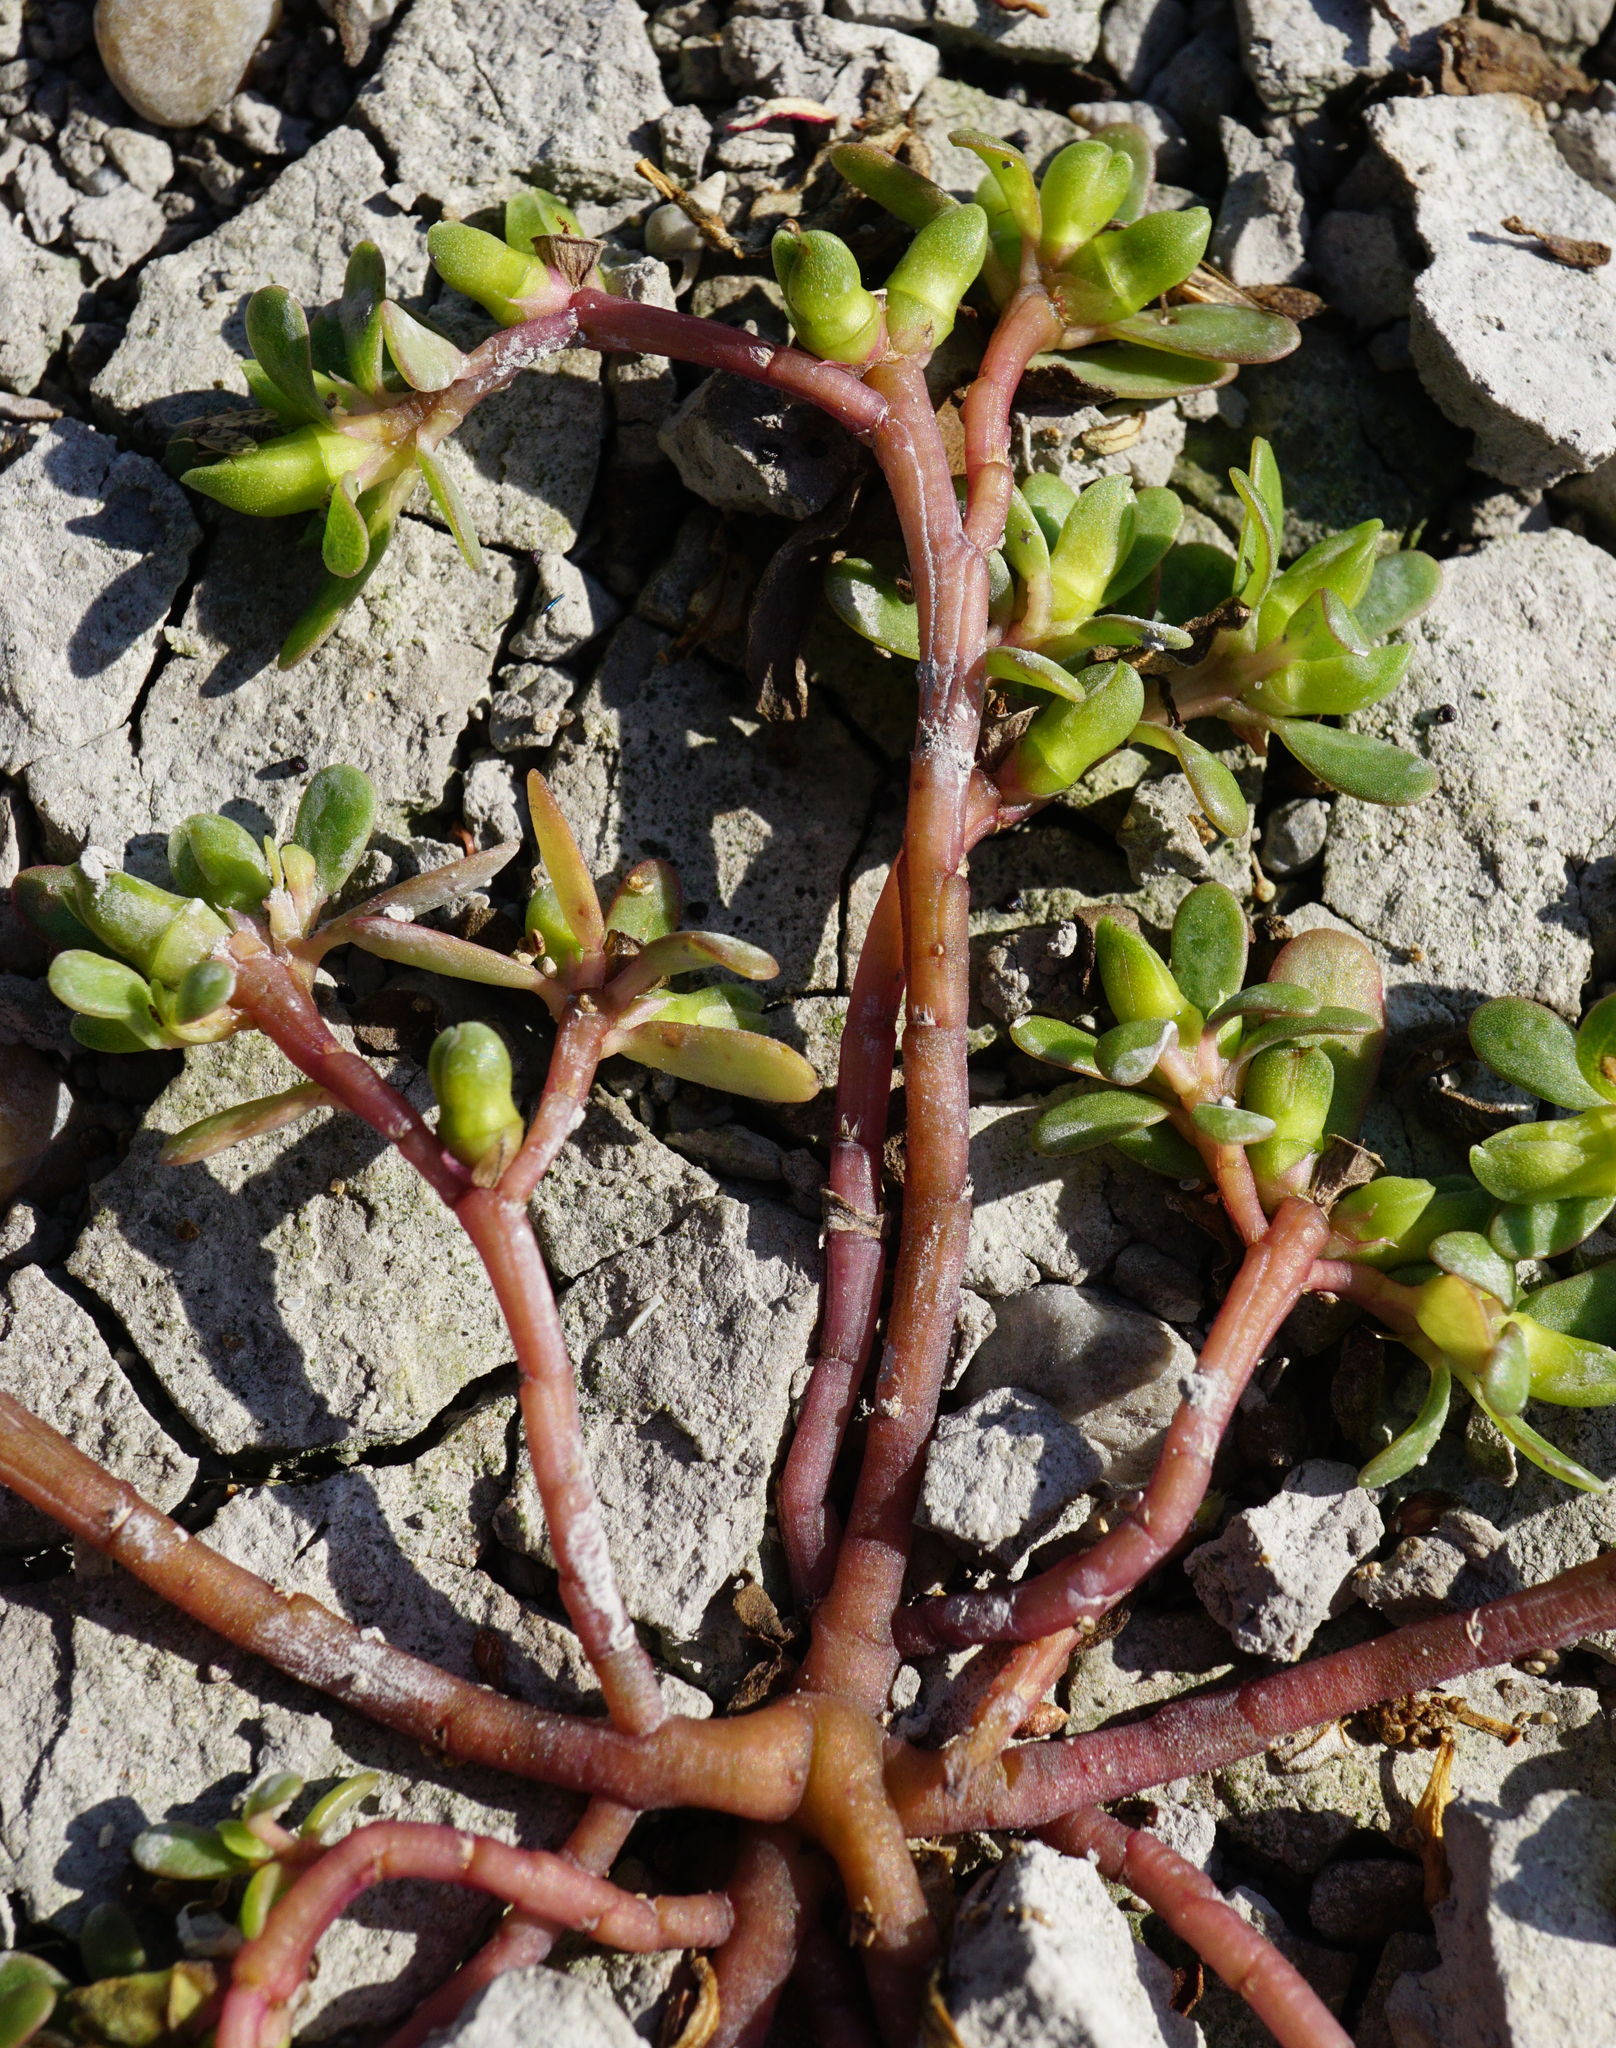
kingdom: Plantae
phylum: Tracheophyta
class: Magnoliopsida
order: Caryophyllales
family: Portulacaceae
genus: Portulaca
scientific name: Portulaca oleracea
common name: Common purslane
